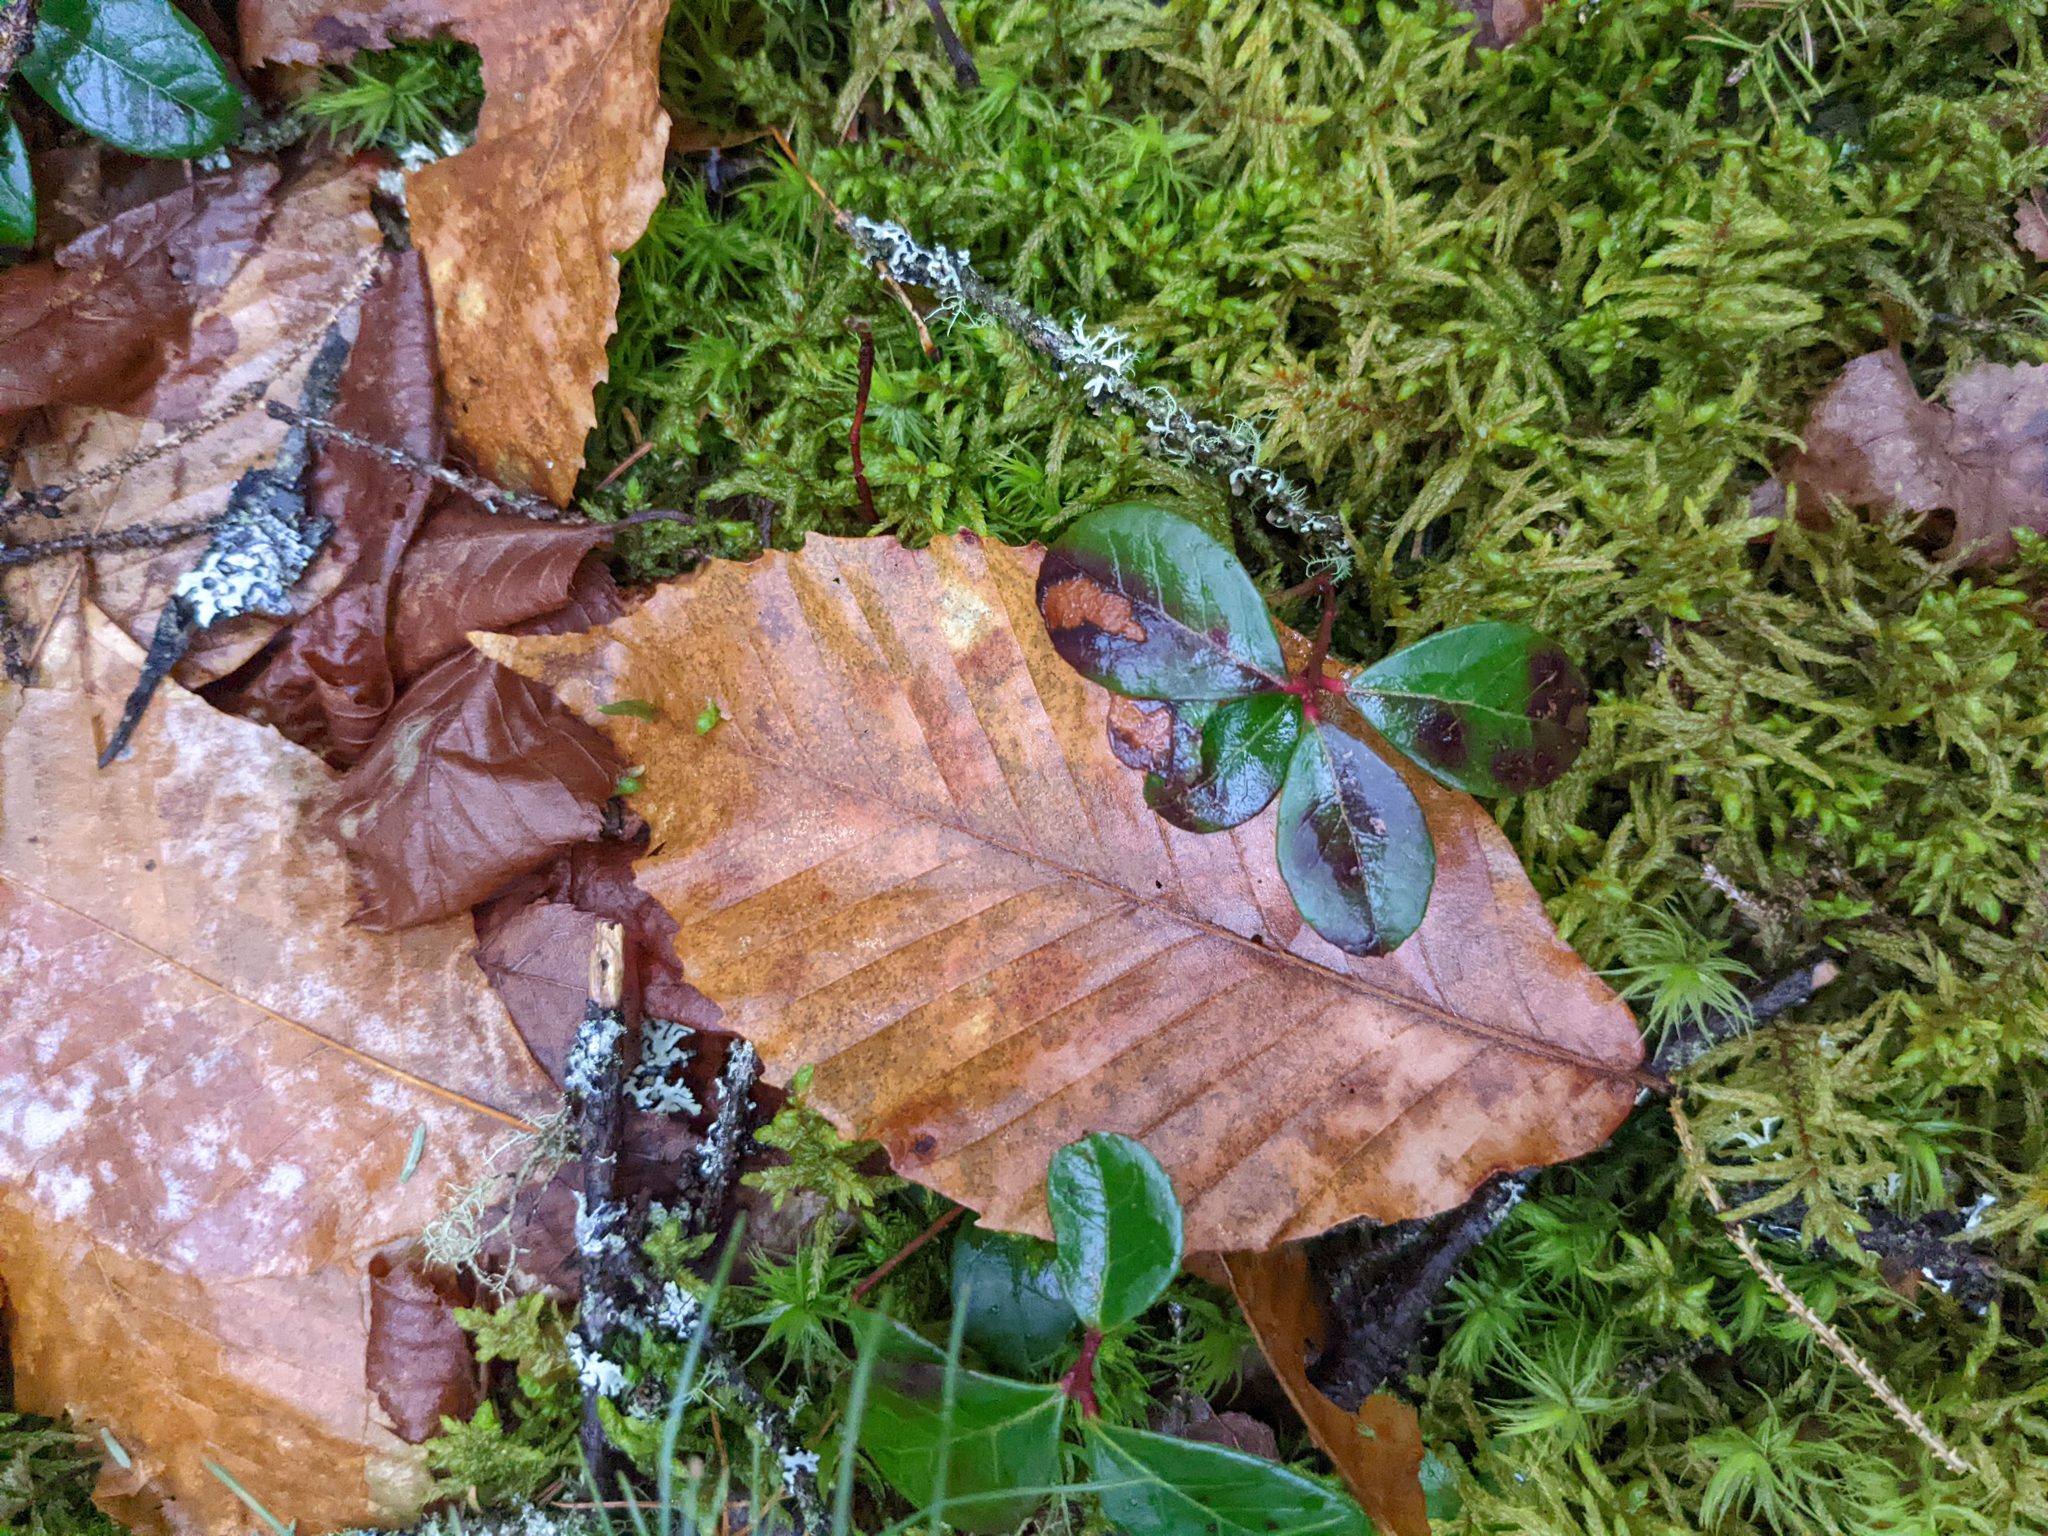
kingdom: Plantae
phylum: Tracheophyta
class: Magnoliopsida
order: Ericales
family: Ericaceae
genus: Gaultheria
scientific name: Gaultheria procumbens
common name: Checkerberry
